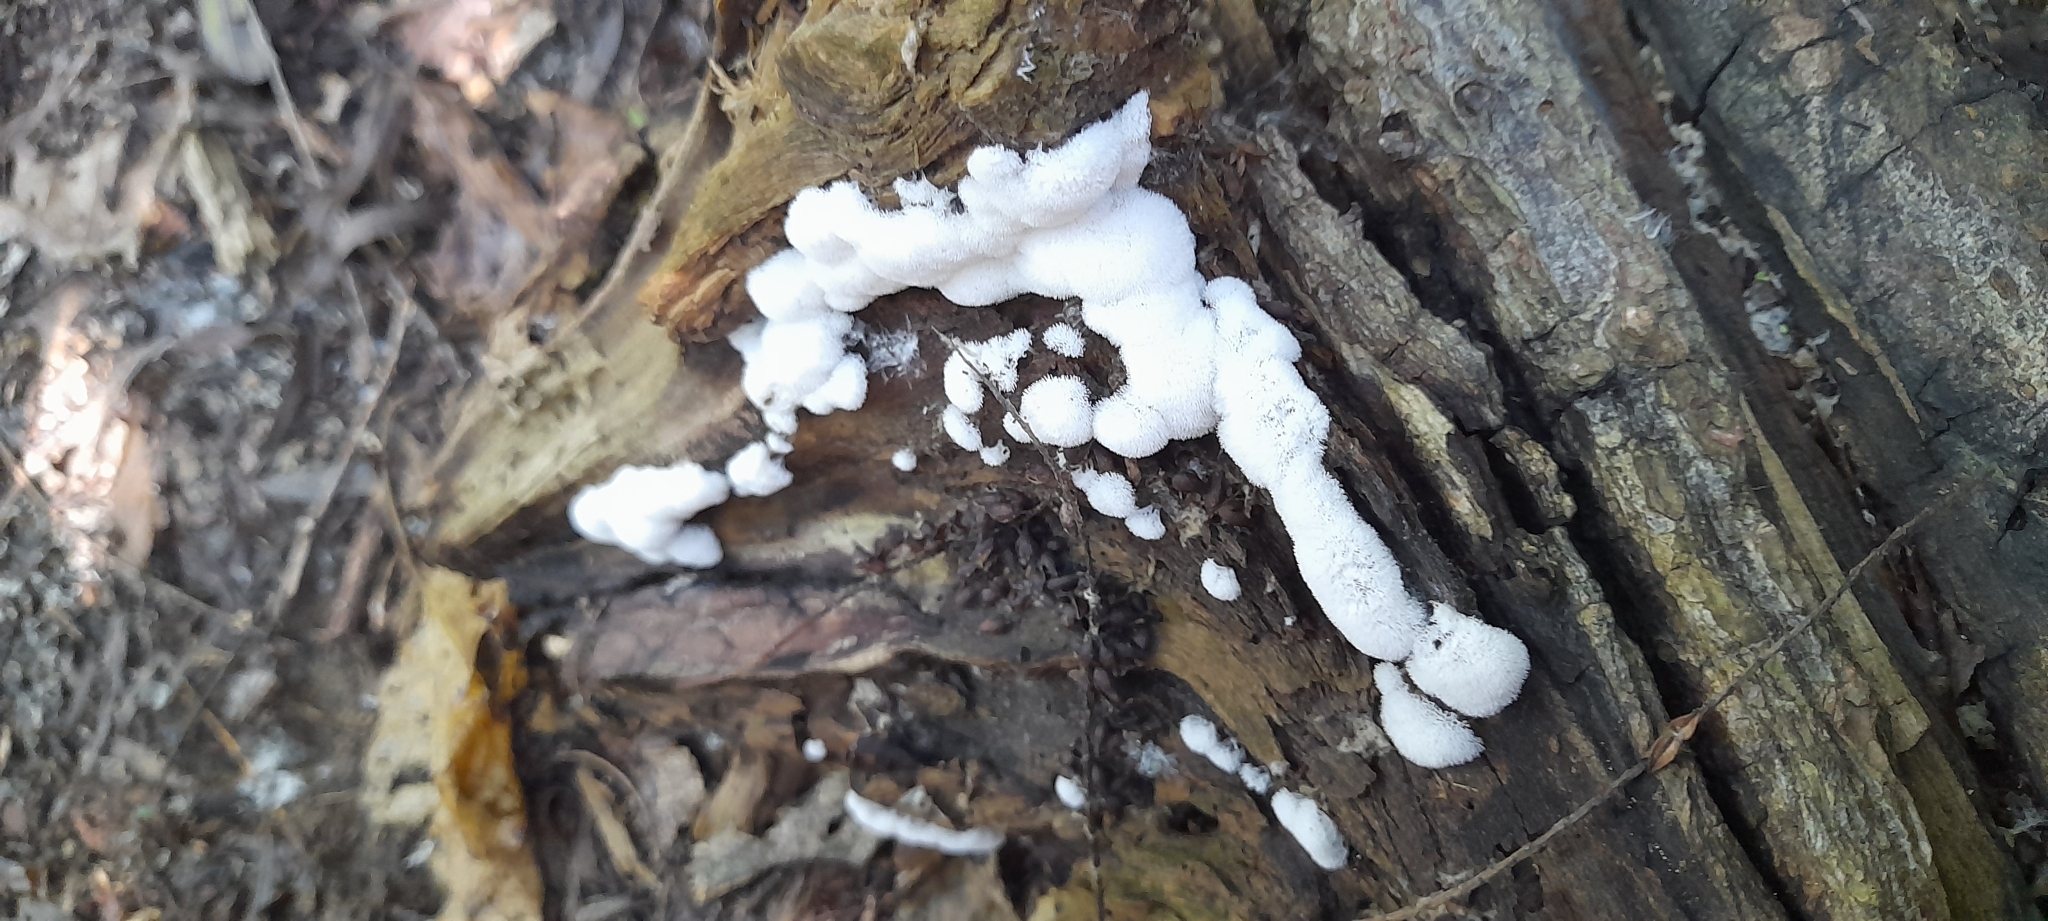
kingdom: Protozoa
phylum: Mycetozoa
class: Protosteliomycetes
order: Ceratiomyxales
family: Ceratiomyxaceae
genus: Ceratiomyxa
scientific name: Ceratiomyxa fruticulosa
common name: Honeycomb coral slime mold
